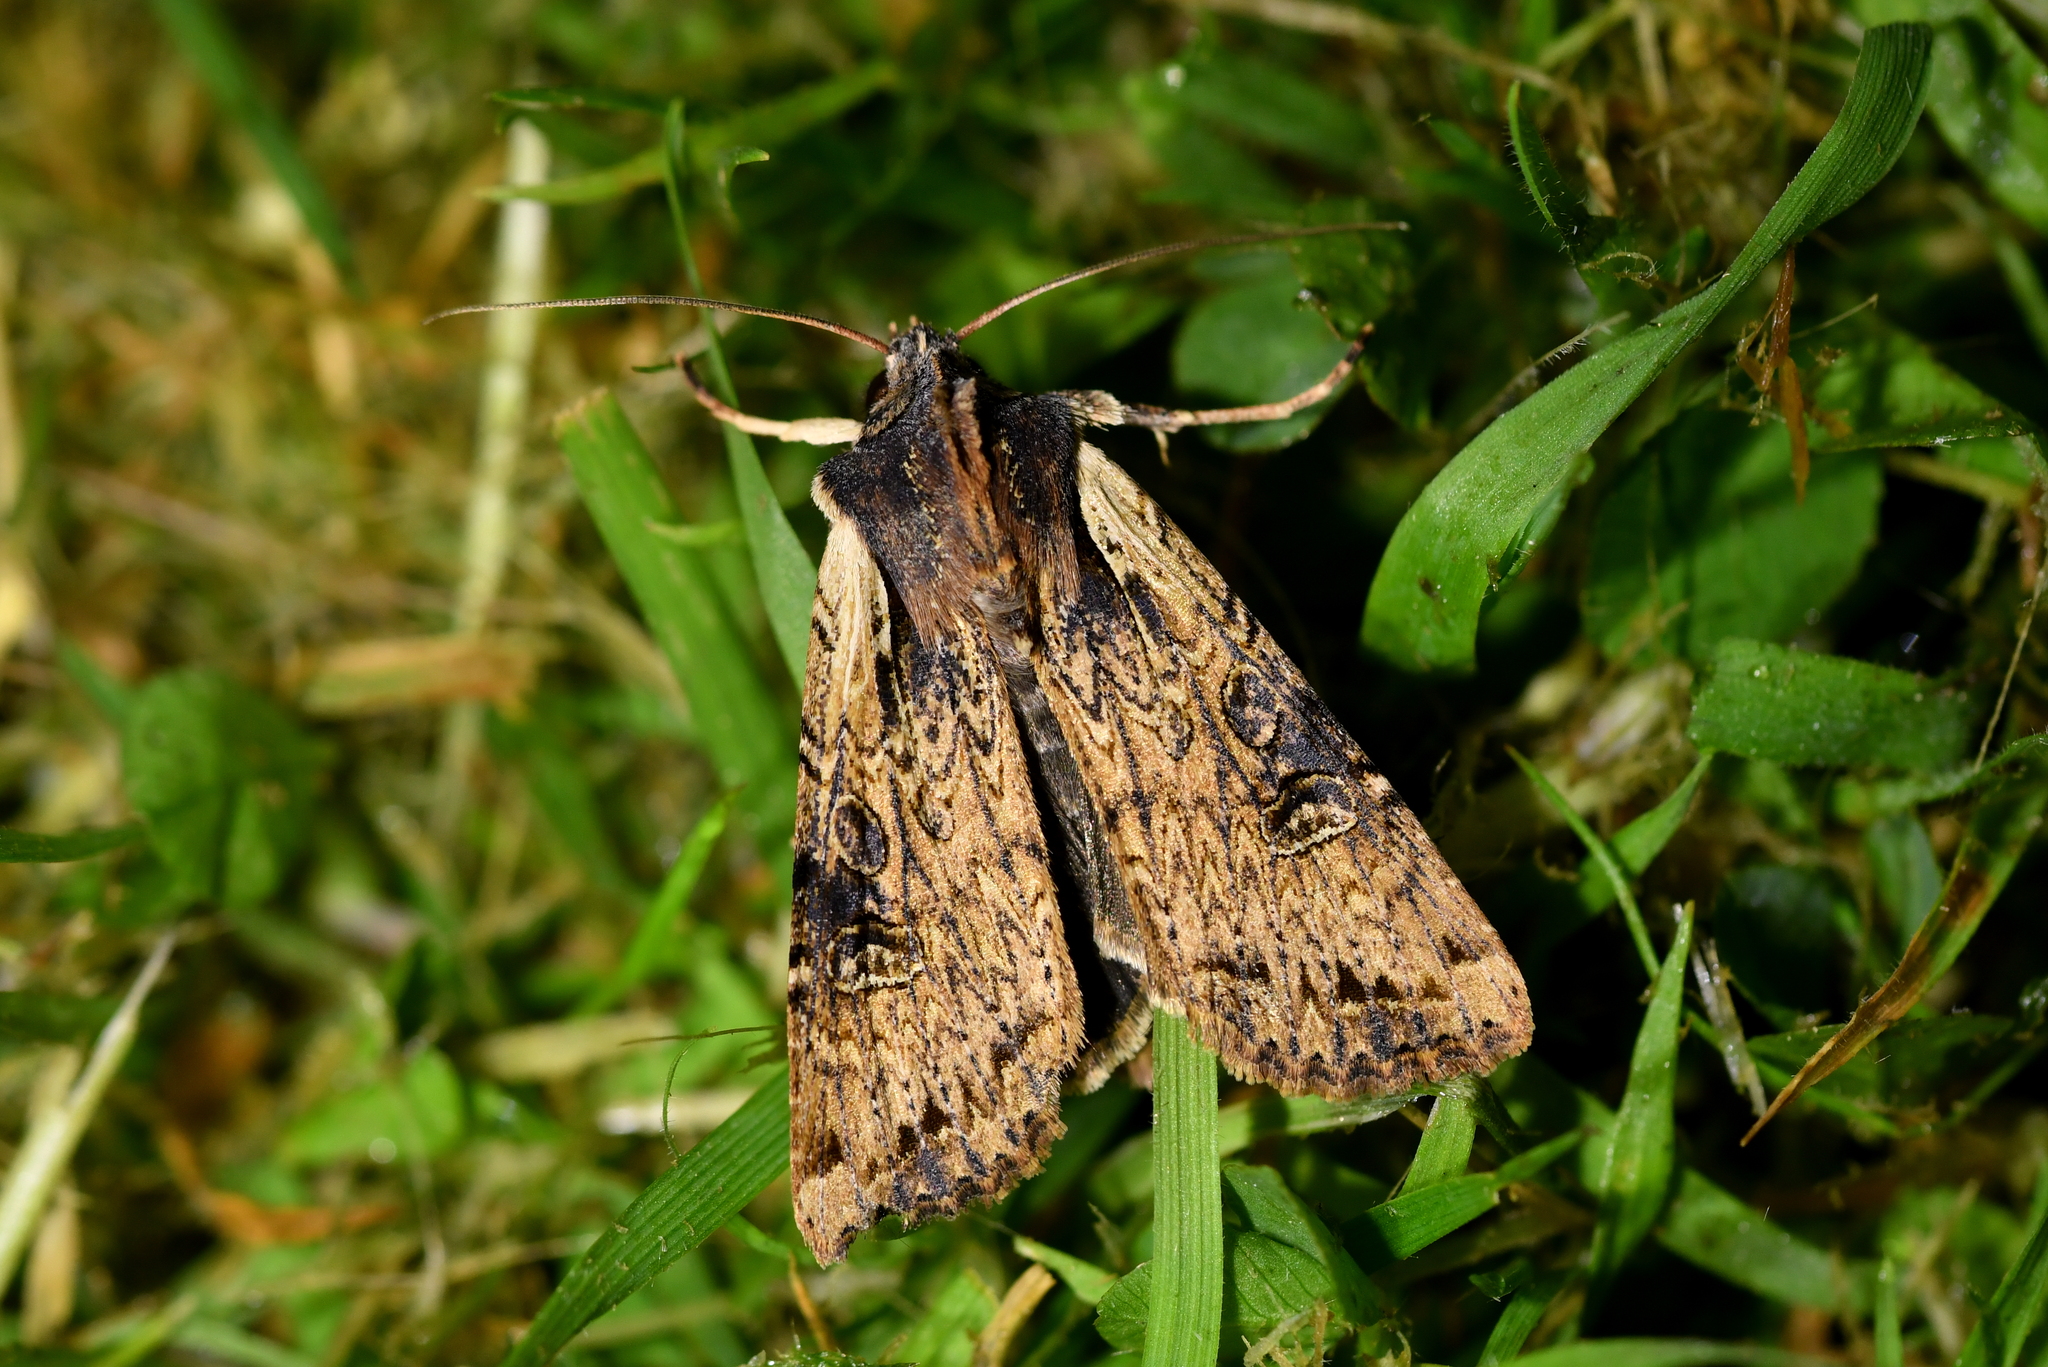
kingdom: Animalia
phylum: Arthropoda
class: Insecta
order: Lepidoptera
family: Noctuidae
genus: Ichneutica
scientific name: Ichneutica omoplaca
